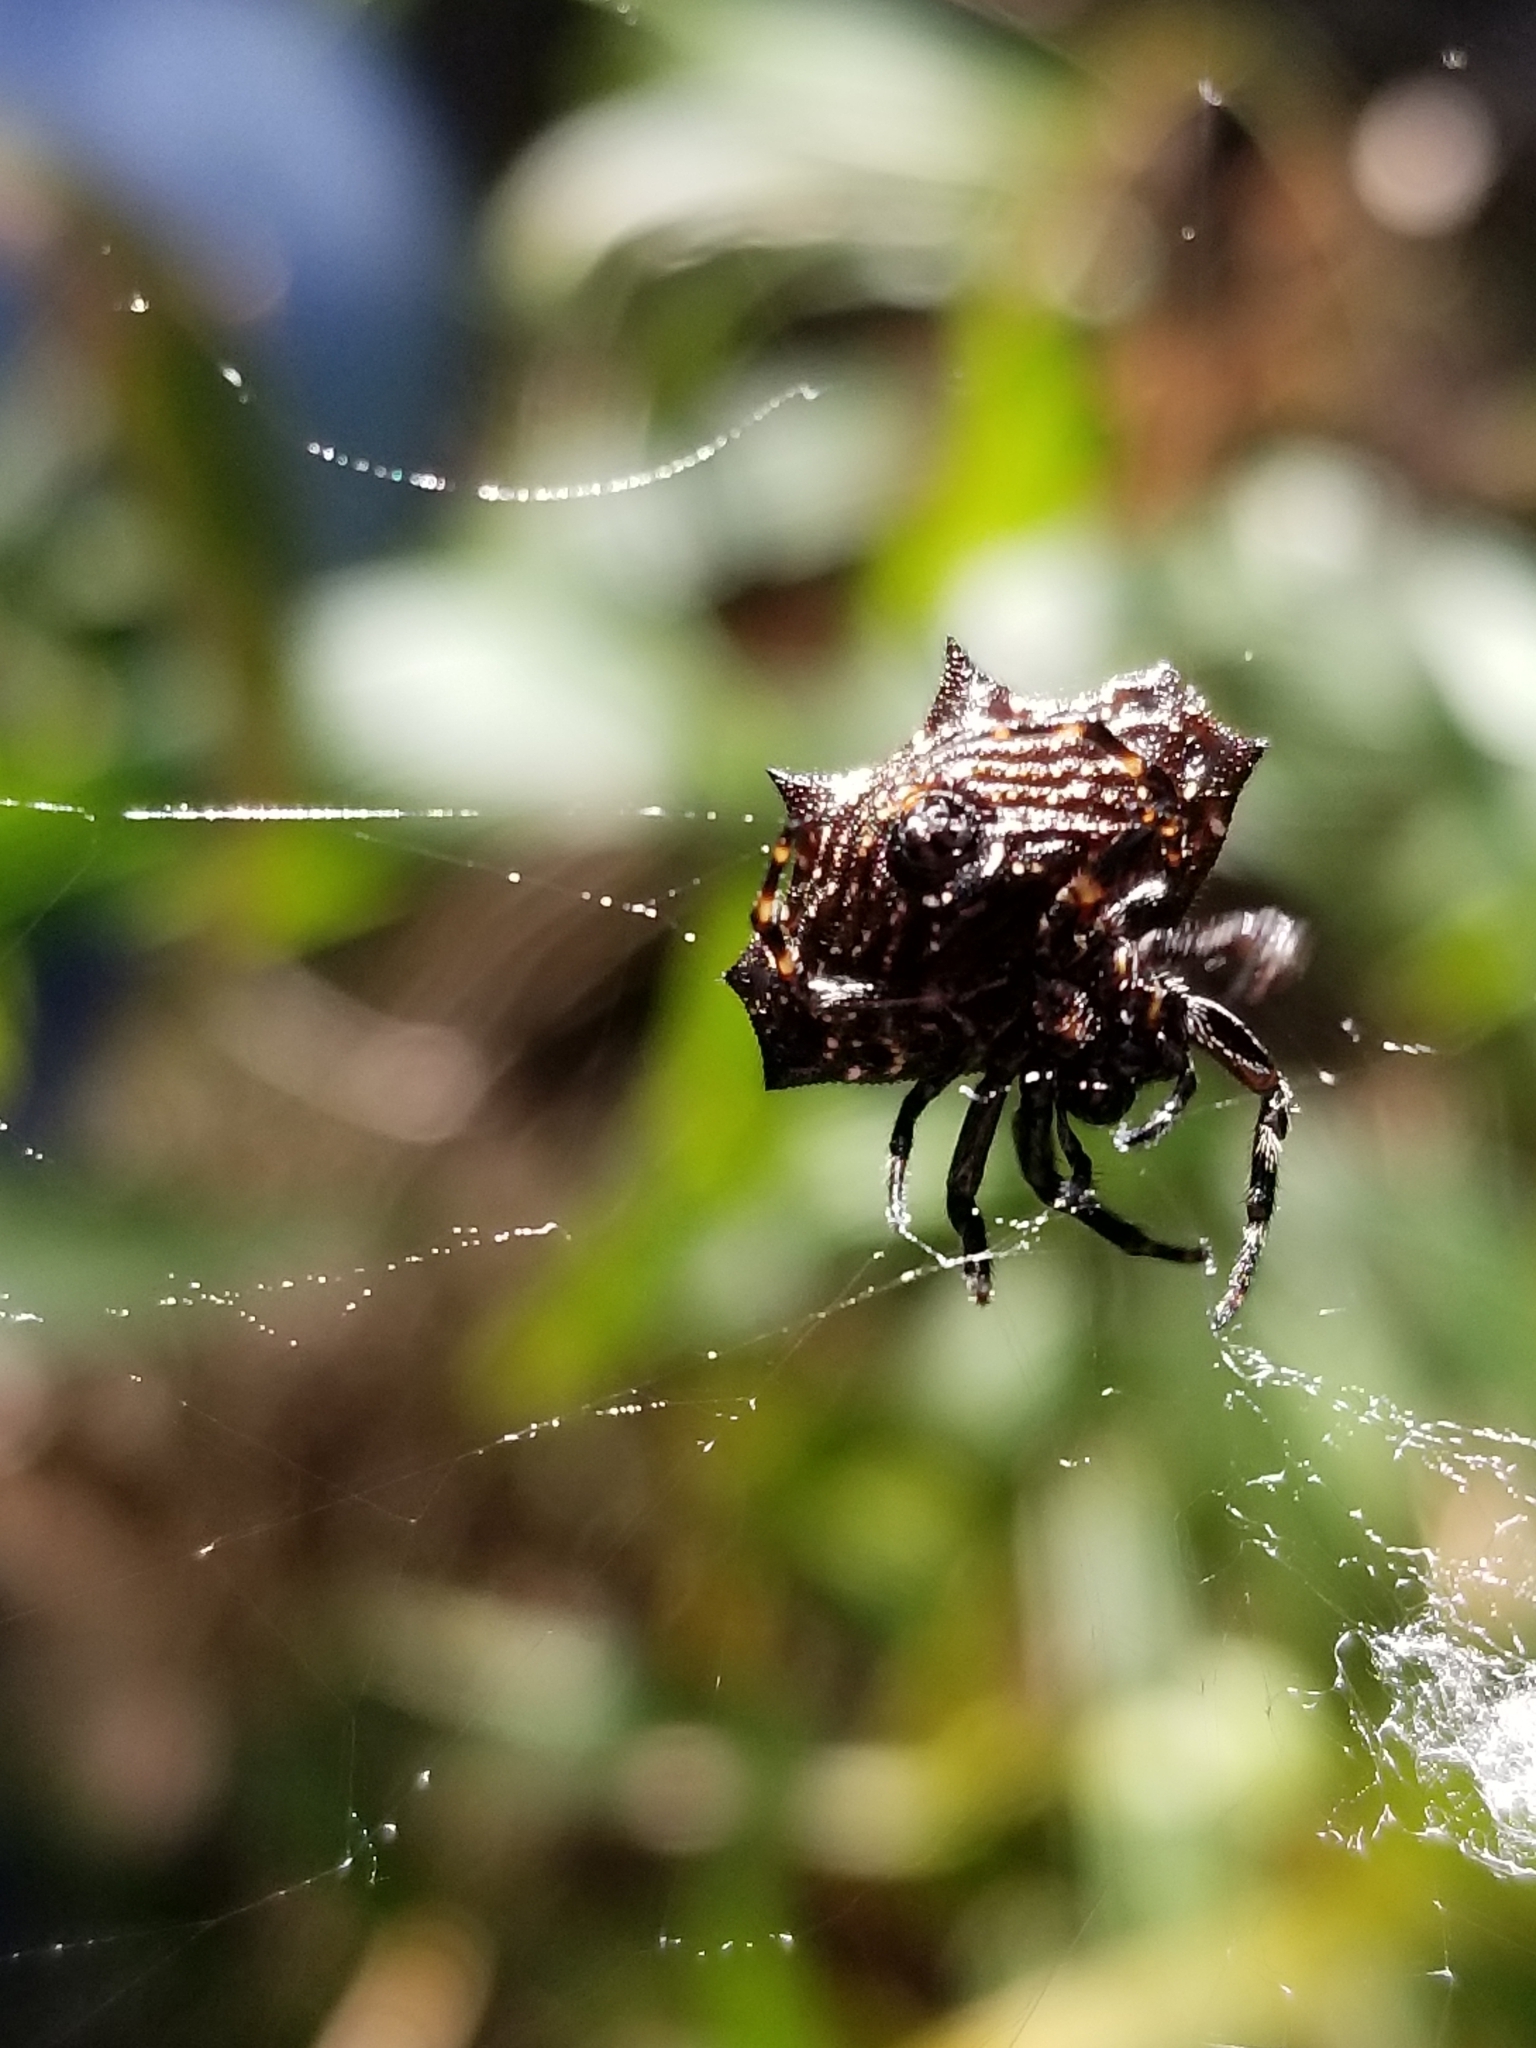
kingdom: Animalia
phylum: Arthropoda
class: Arachnida
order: Araneae
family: Araneidae
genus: Gasteracantha
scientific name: Gasteracantha cancriformis
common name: Orb weavers
